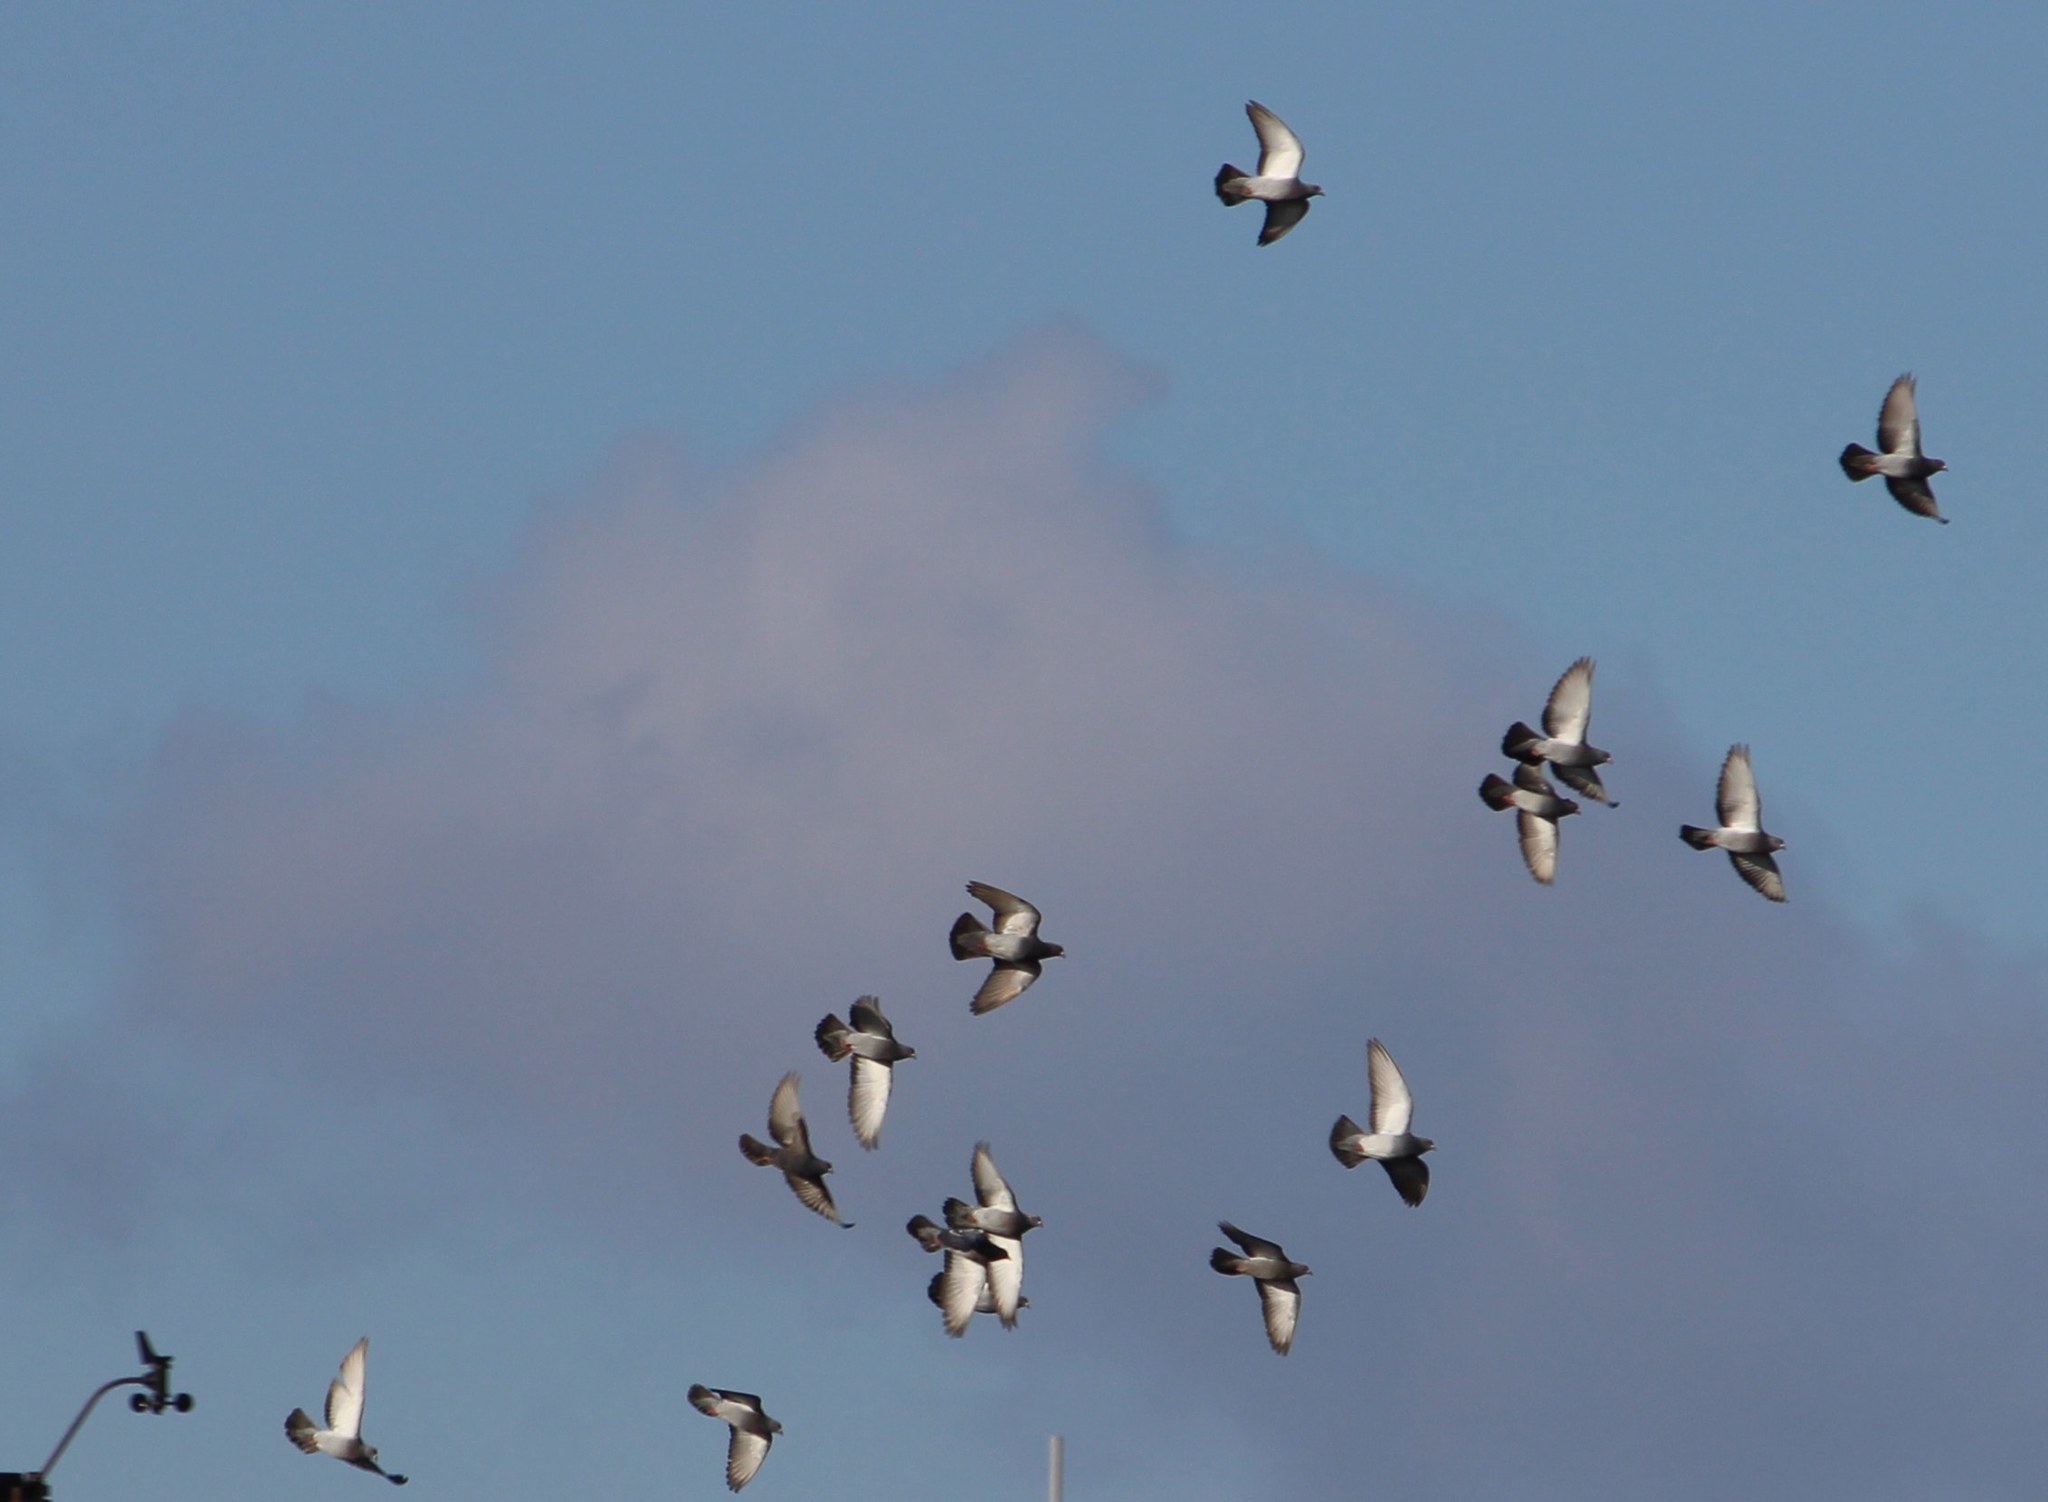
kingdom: Animalia
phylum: Chordata
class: Aves
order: Columbiformes
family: Columbidae
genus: Columba
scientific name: Columba livia
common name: Rock pigeon
